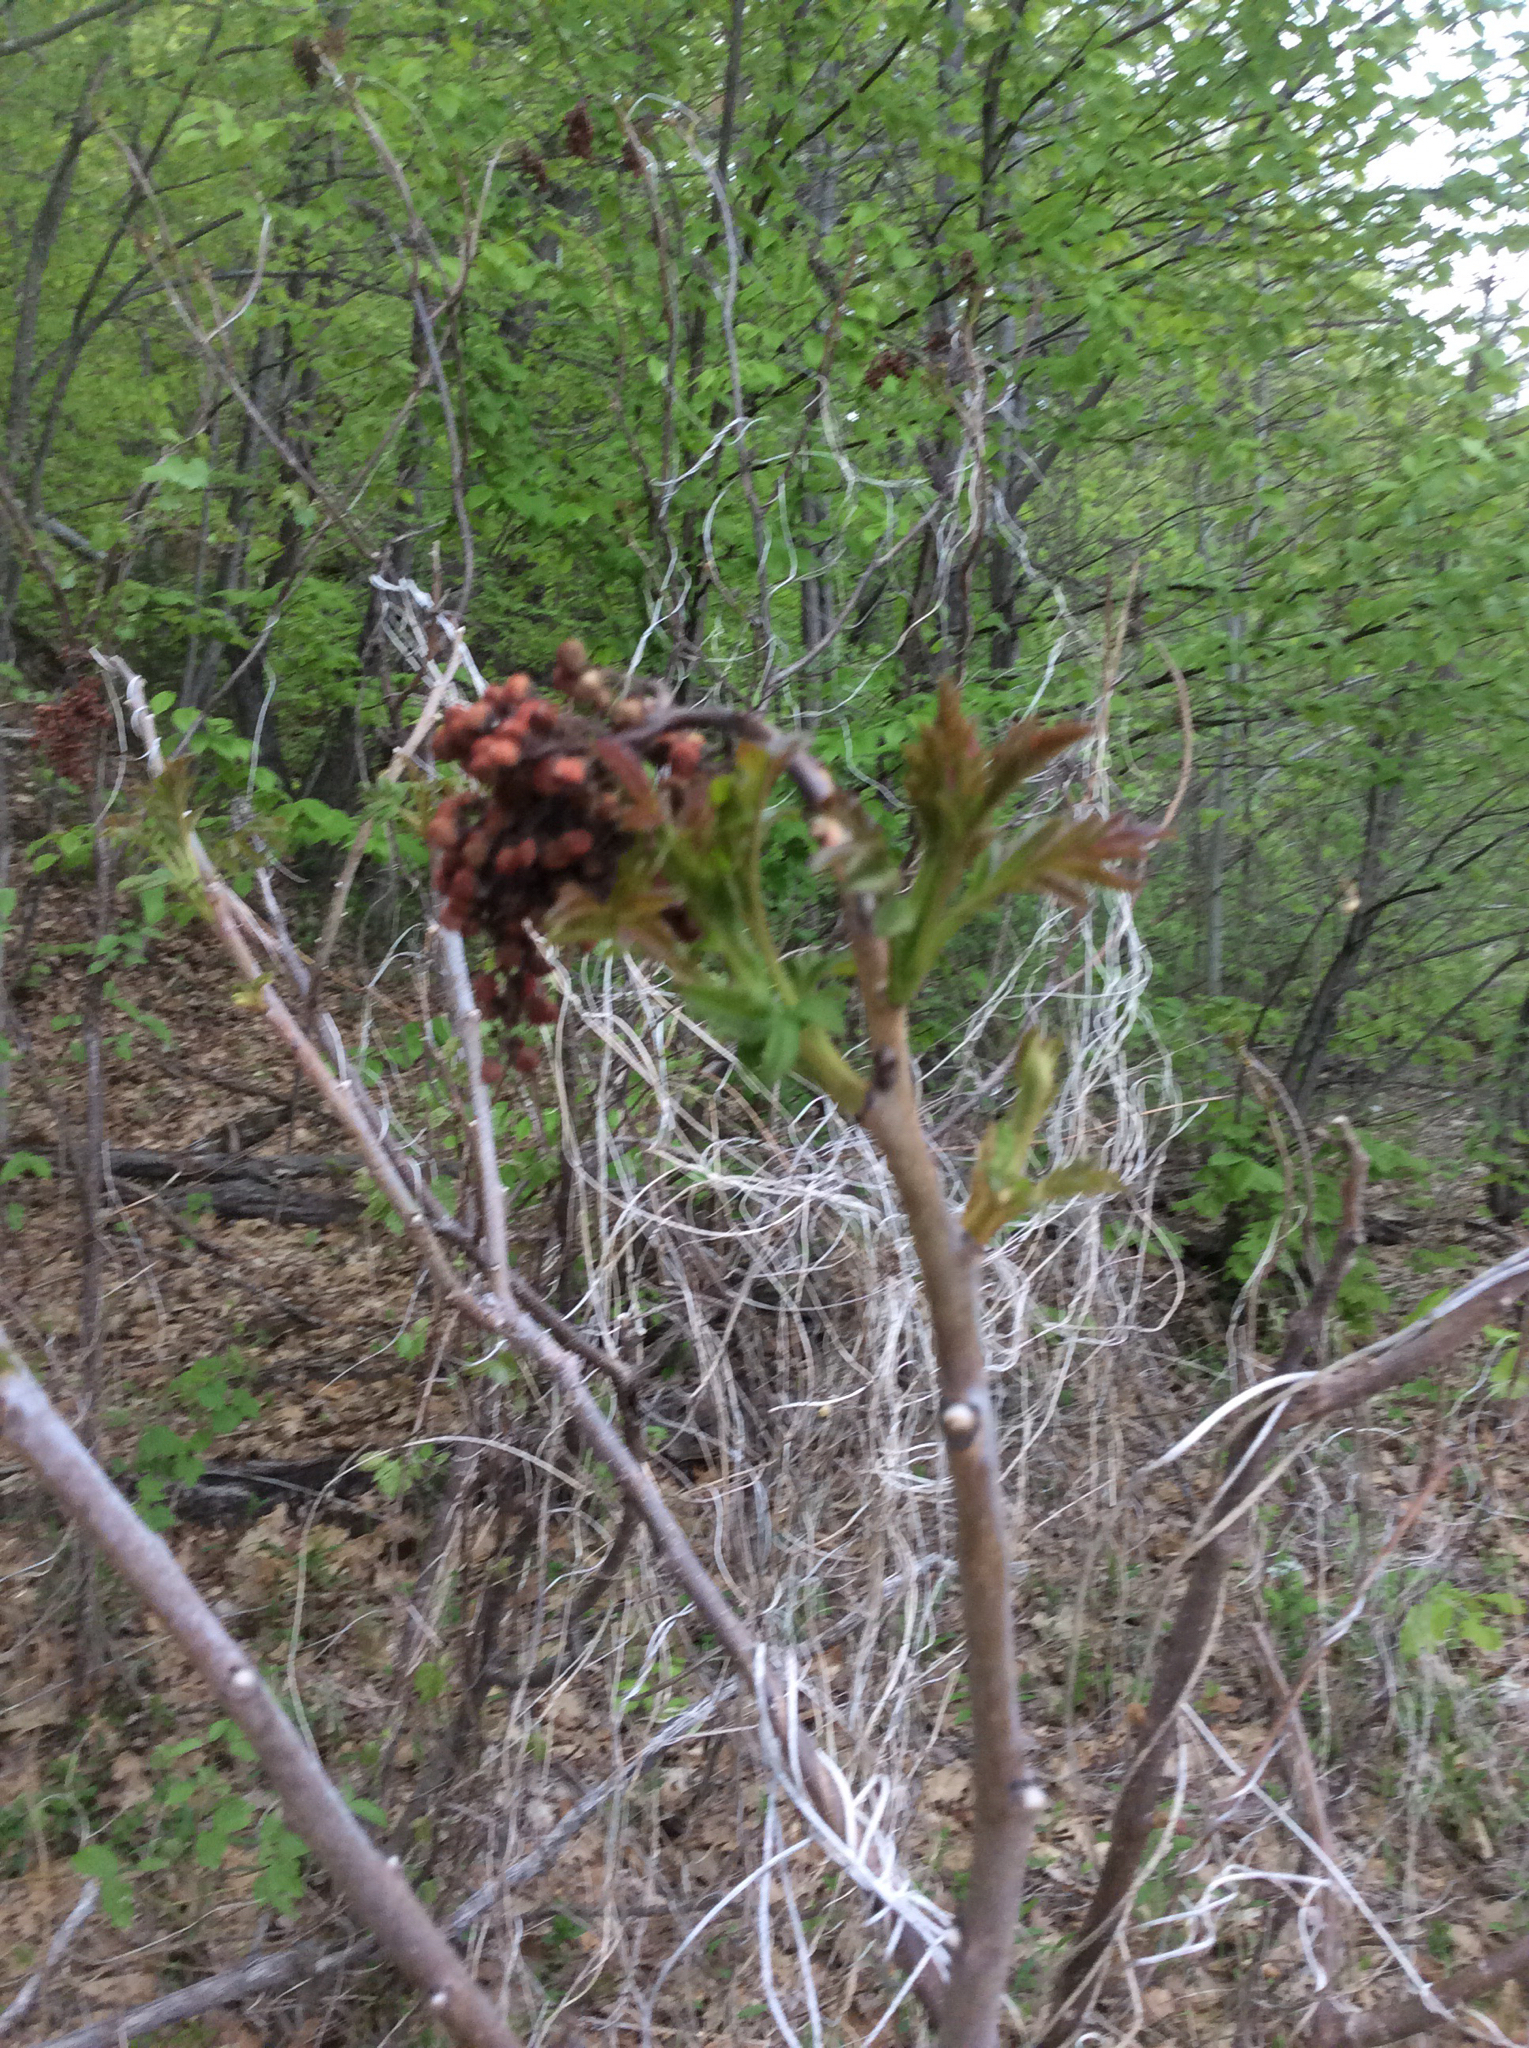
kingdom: Plantae
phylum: Tracheophyta
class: Magnoliopsida
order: Sapindales
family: Anacardiaceae
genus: Rhus
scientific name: Rhus typhina
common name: Staghorn sumac
